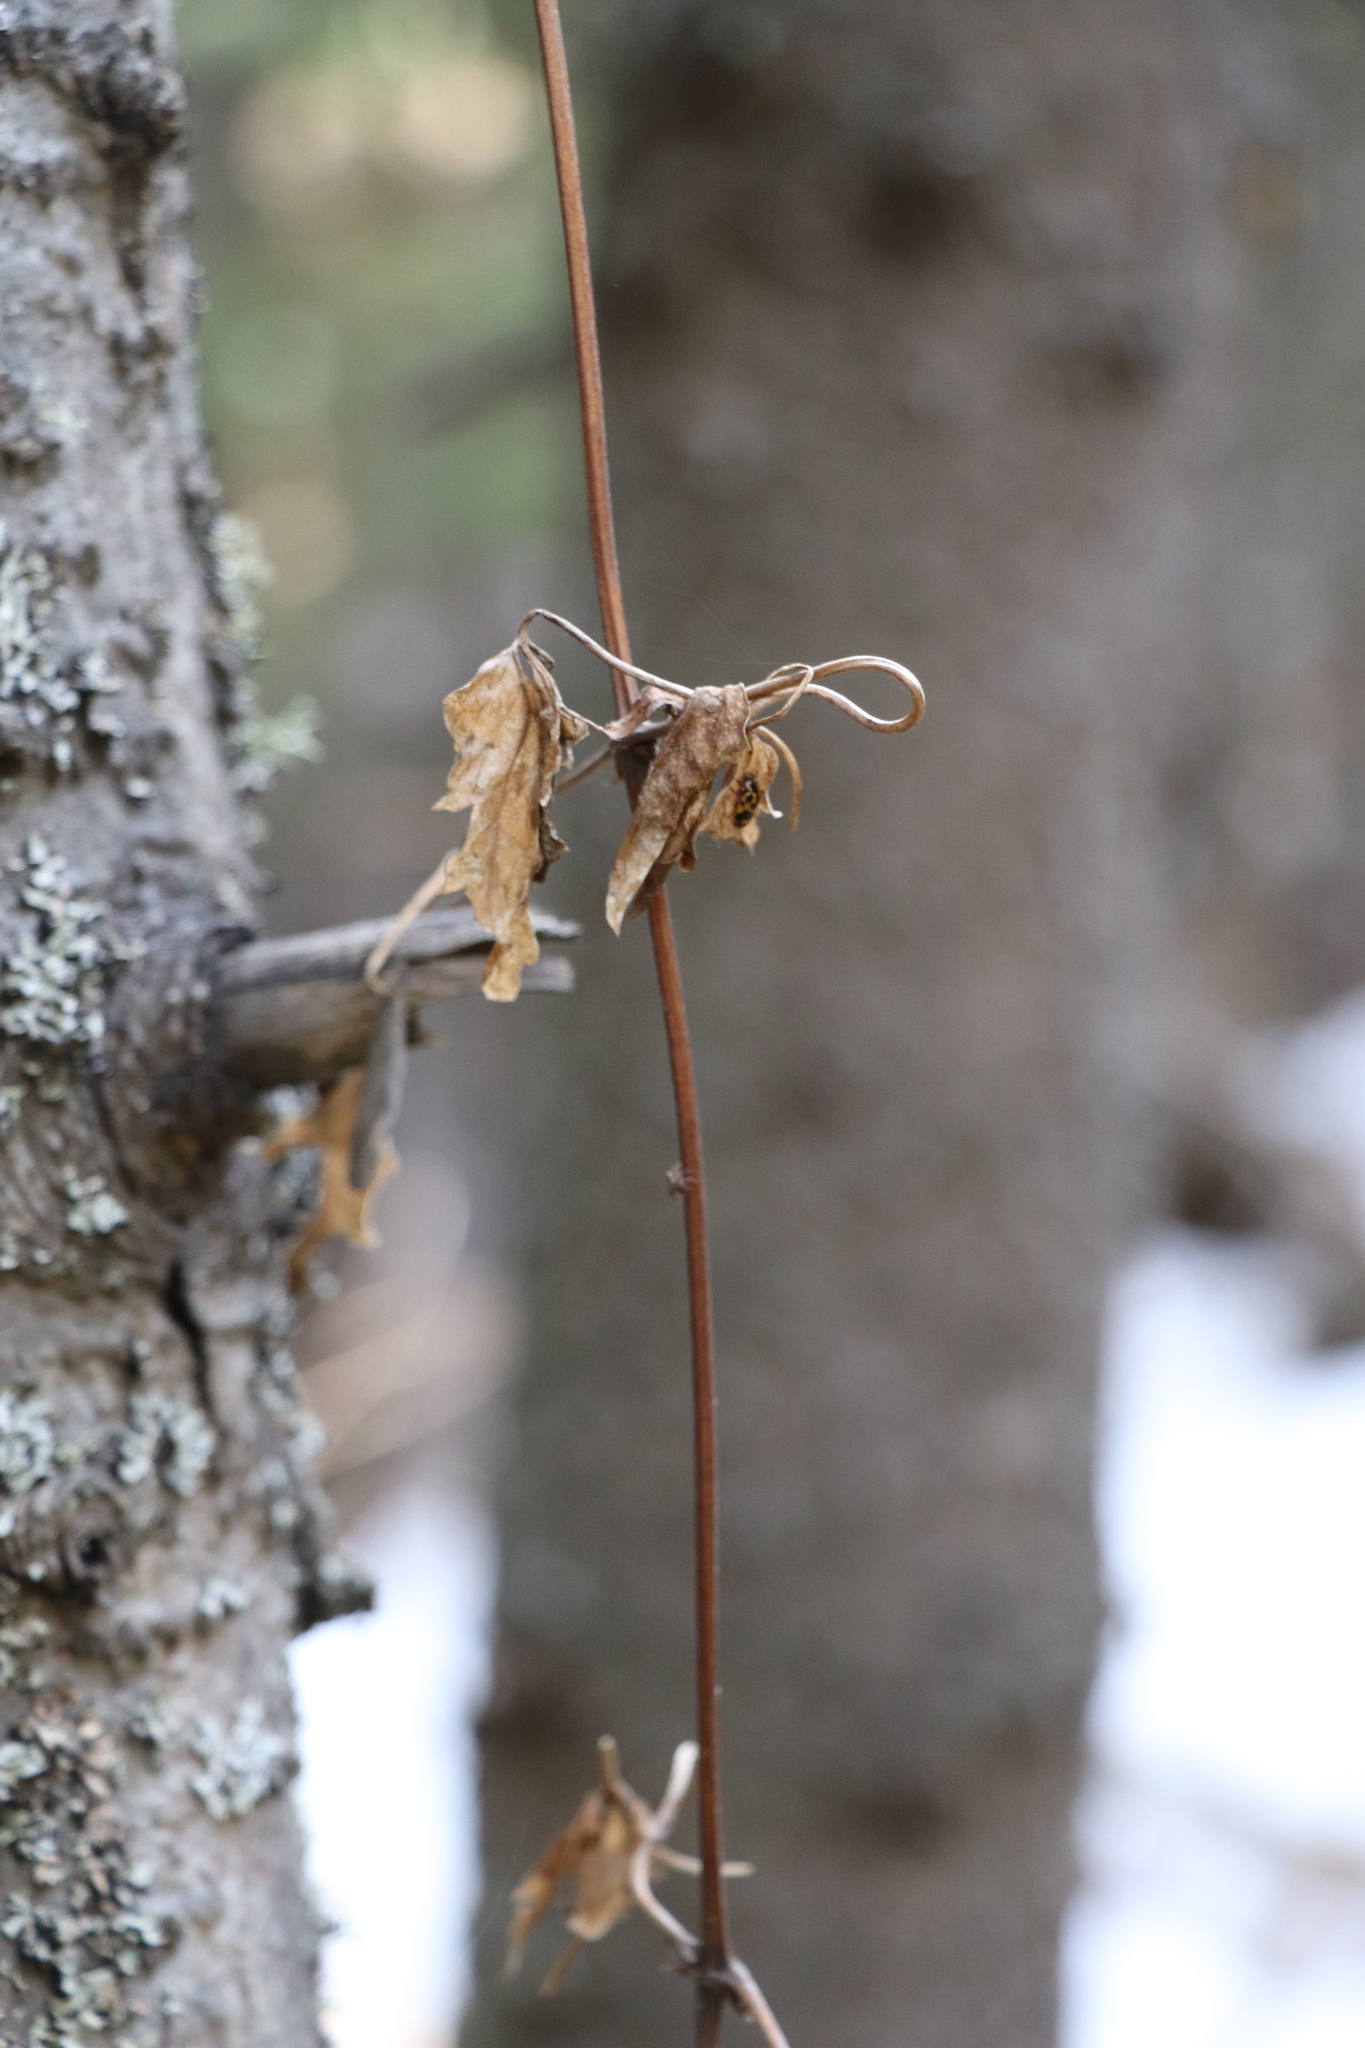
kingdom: Plantae
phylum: Tracheophyta
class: Magnoliopsida
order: Ranunculales
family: Ranunculaceae
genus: Clematis
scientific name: Clematis sibirica
